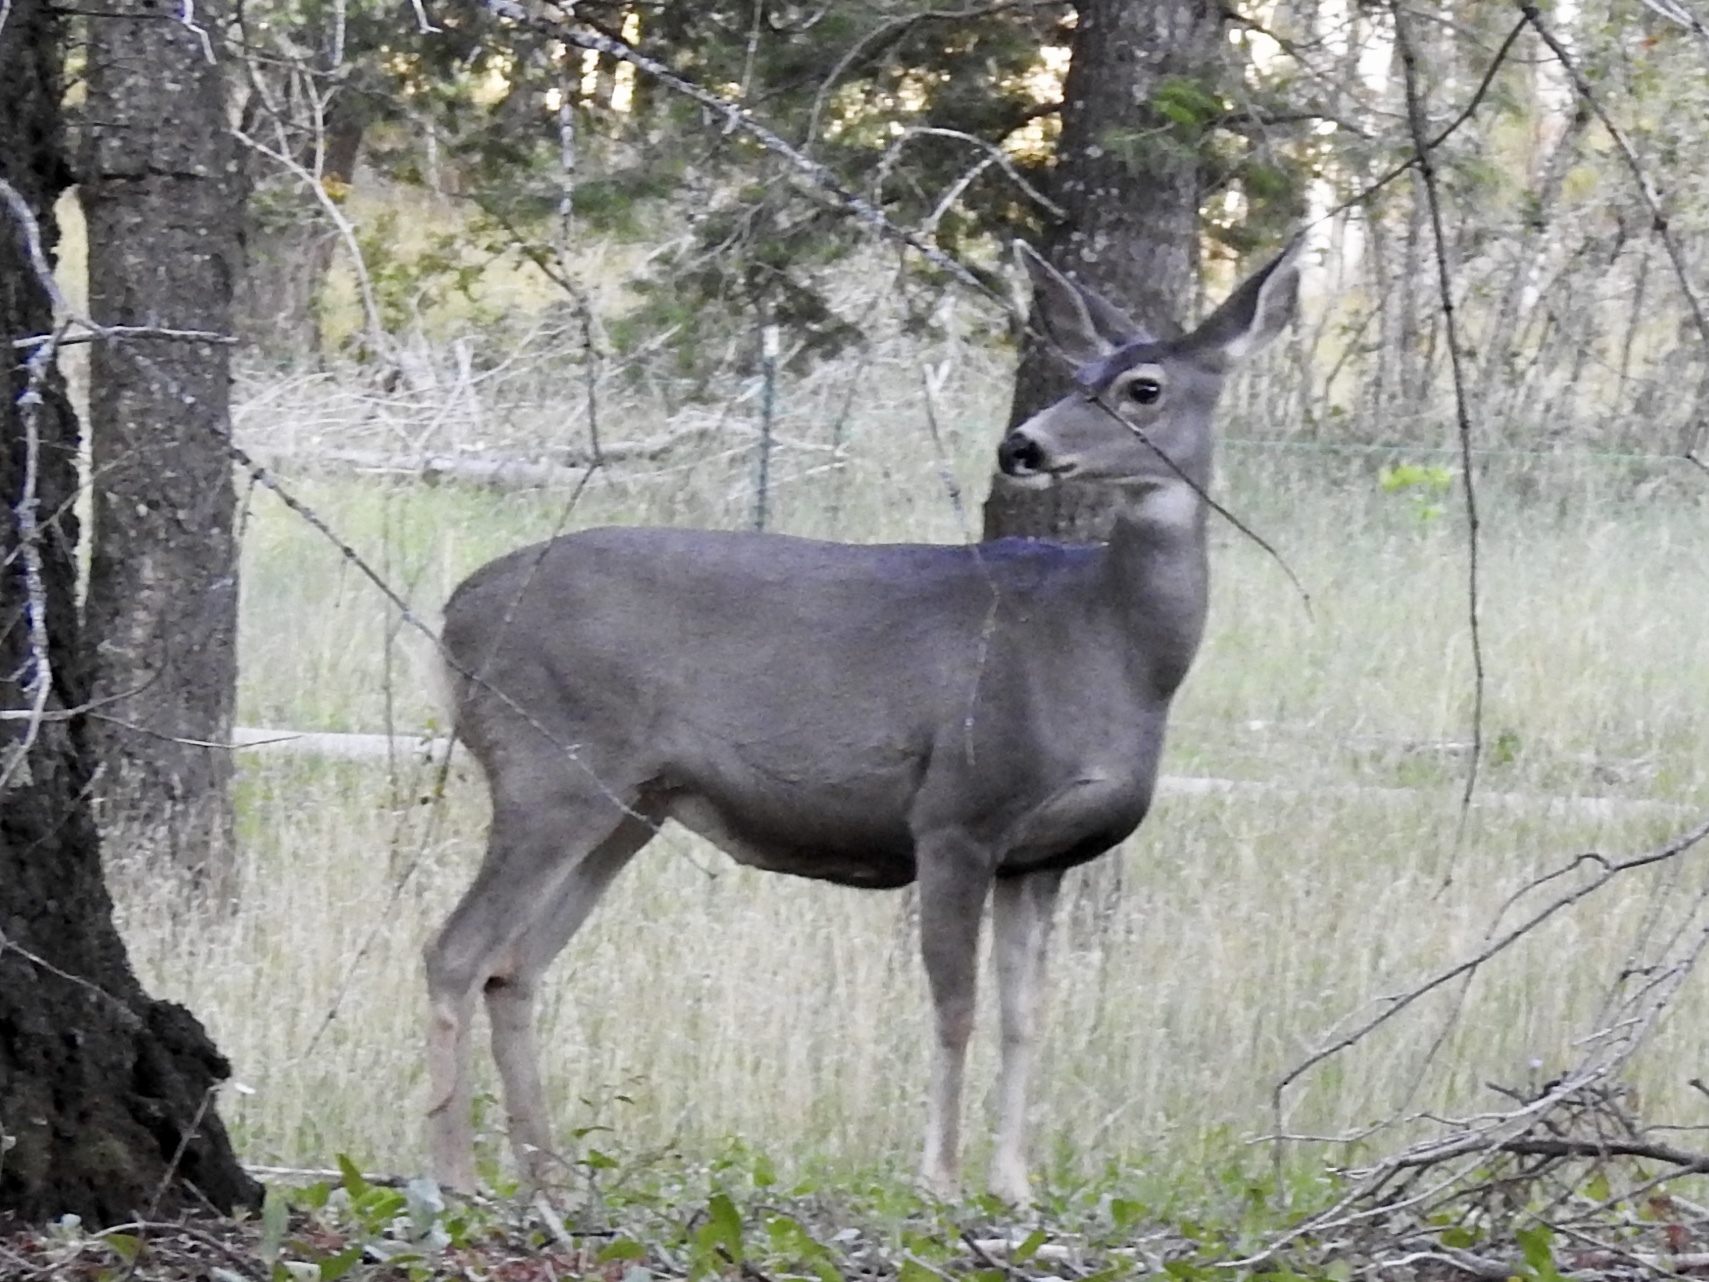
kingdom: Animalia
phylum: Chordata
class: Mammalia
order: Artiodactyla
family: Cervidae
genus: Odocoileus
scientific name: Odocoileus hemionus
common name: Mule deer
